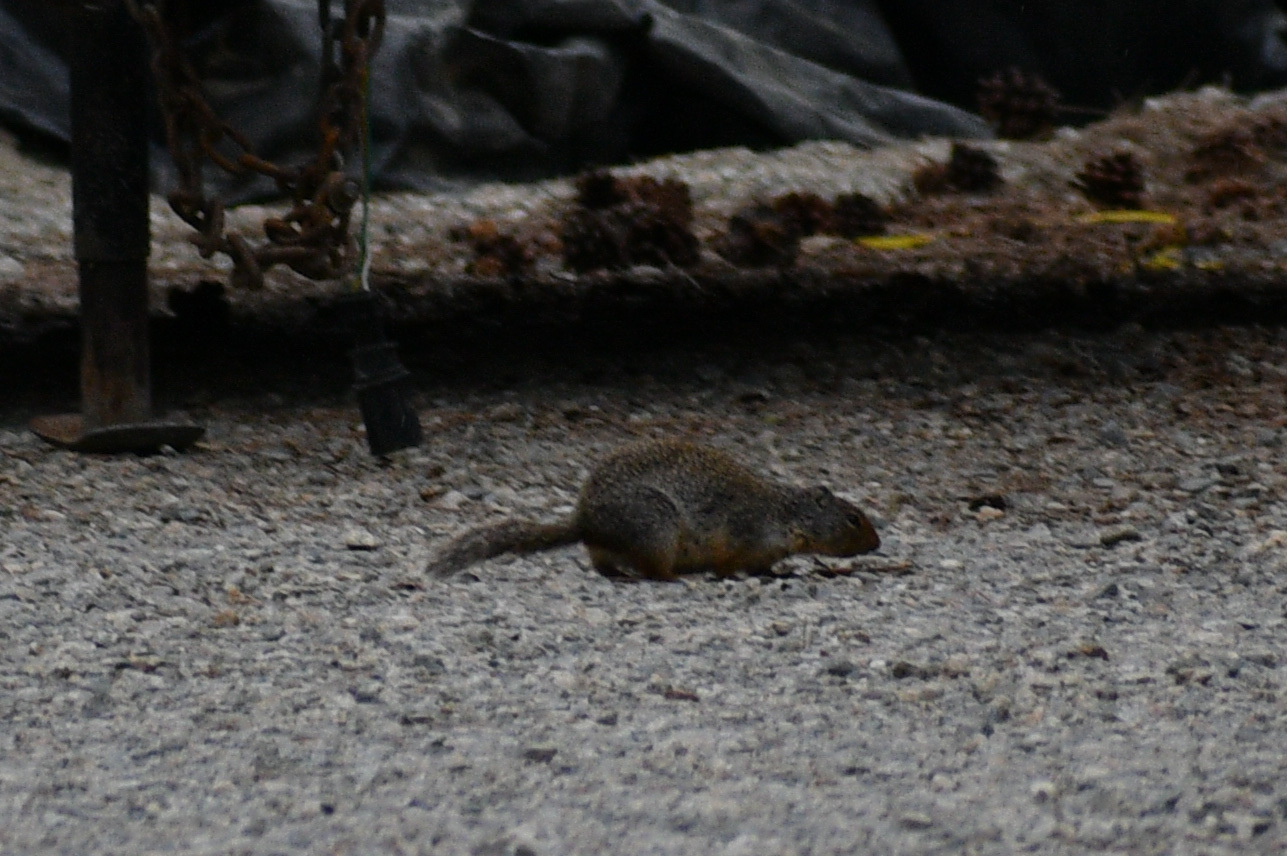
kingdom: Animalia
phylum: Chordata
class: Mammalia
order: Rodentia
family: Sciuridae
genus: Urocitellus
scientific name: Urocitellus columbianus
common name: Columbian ground squirrel
